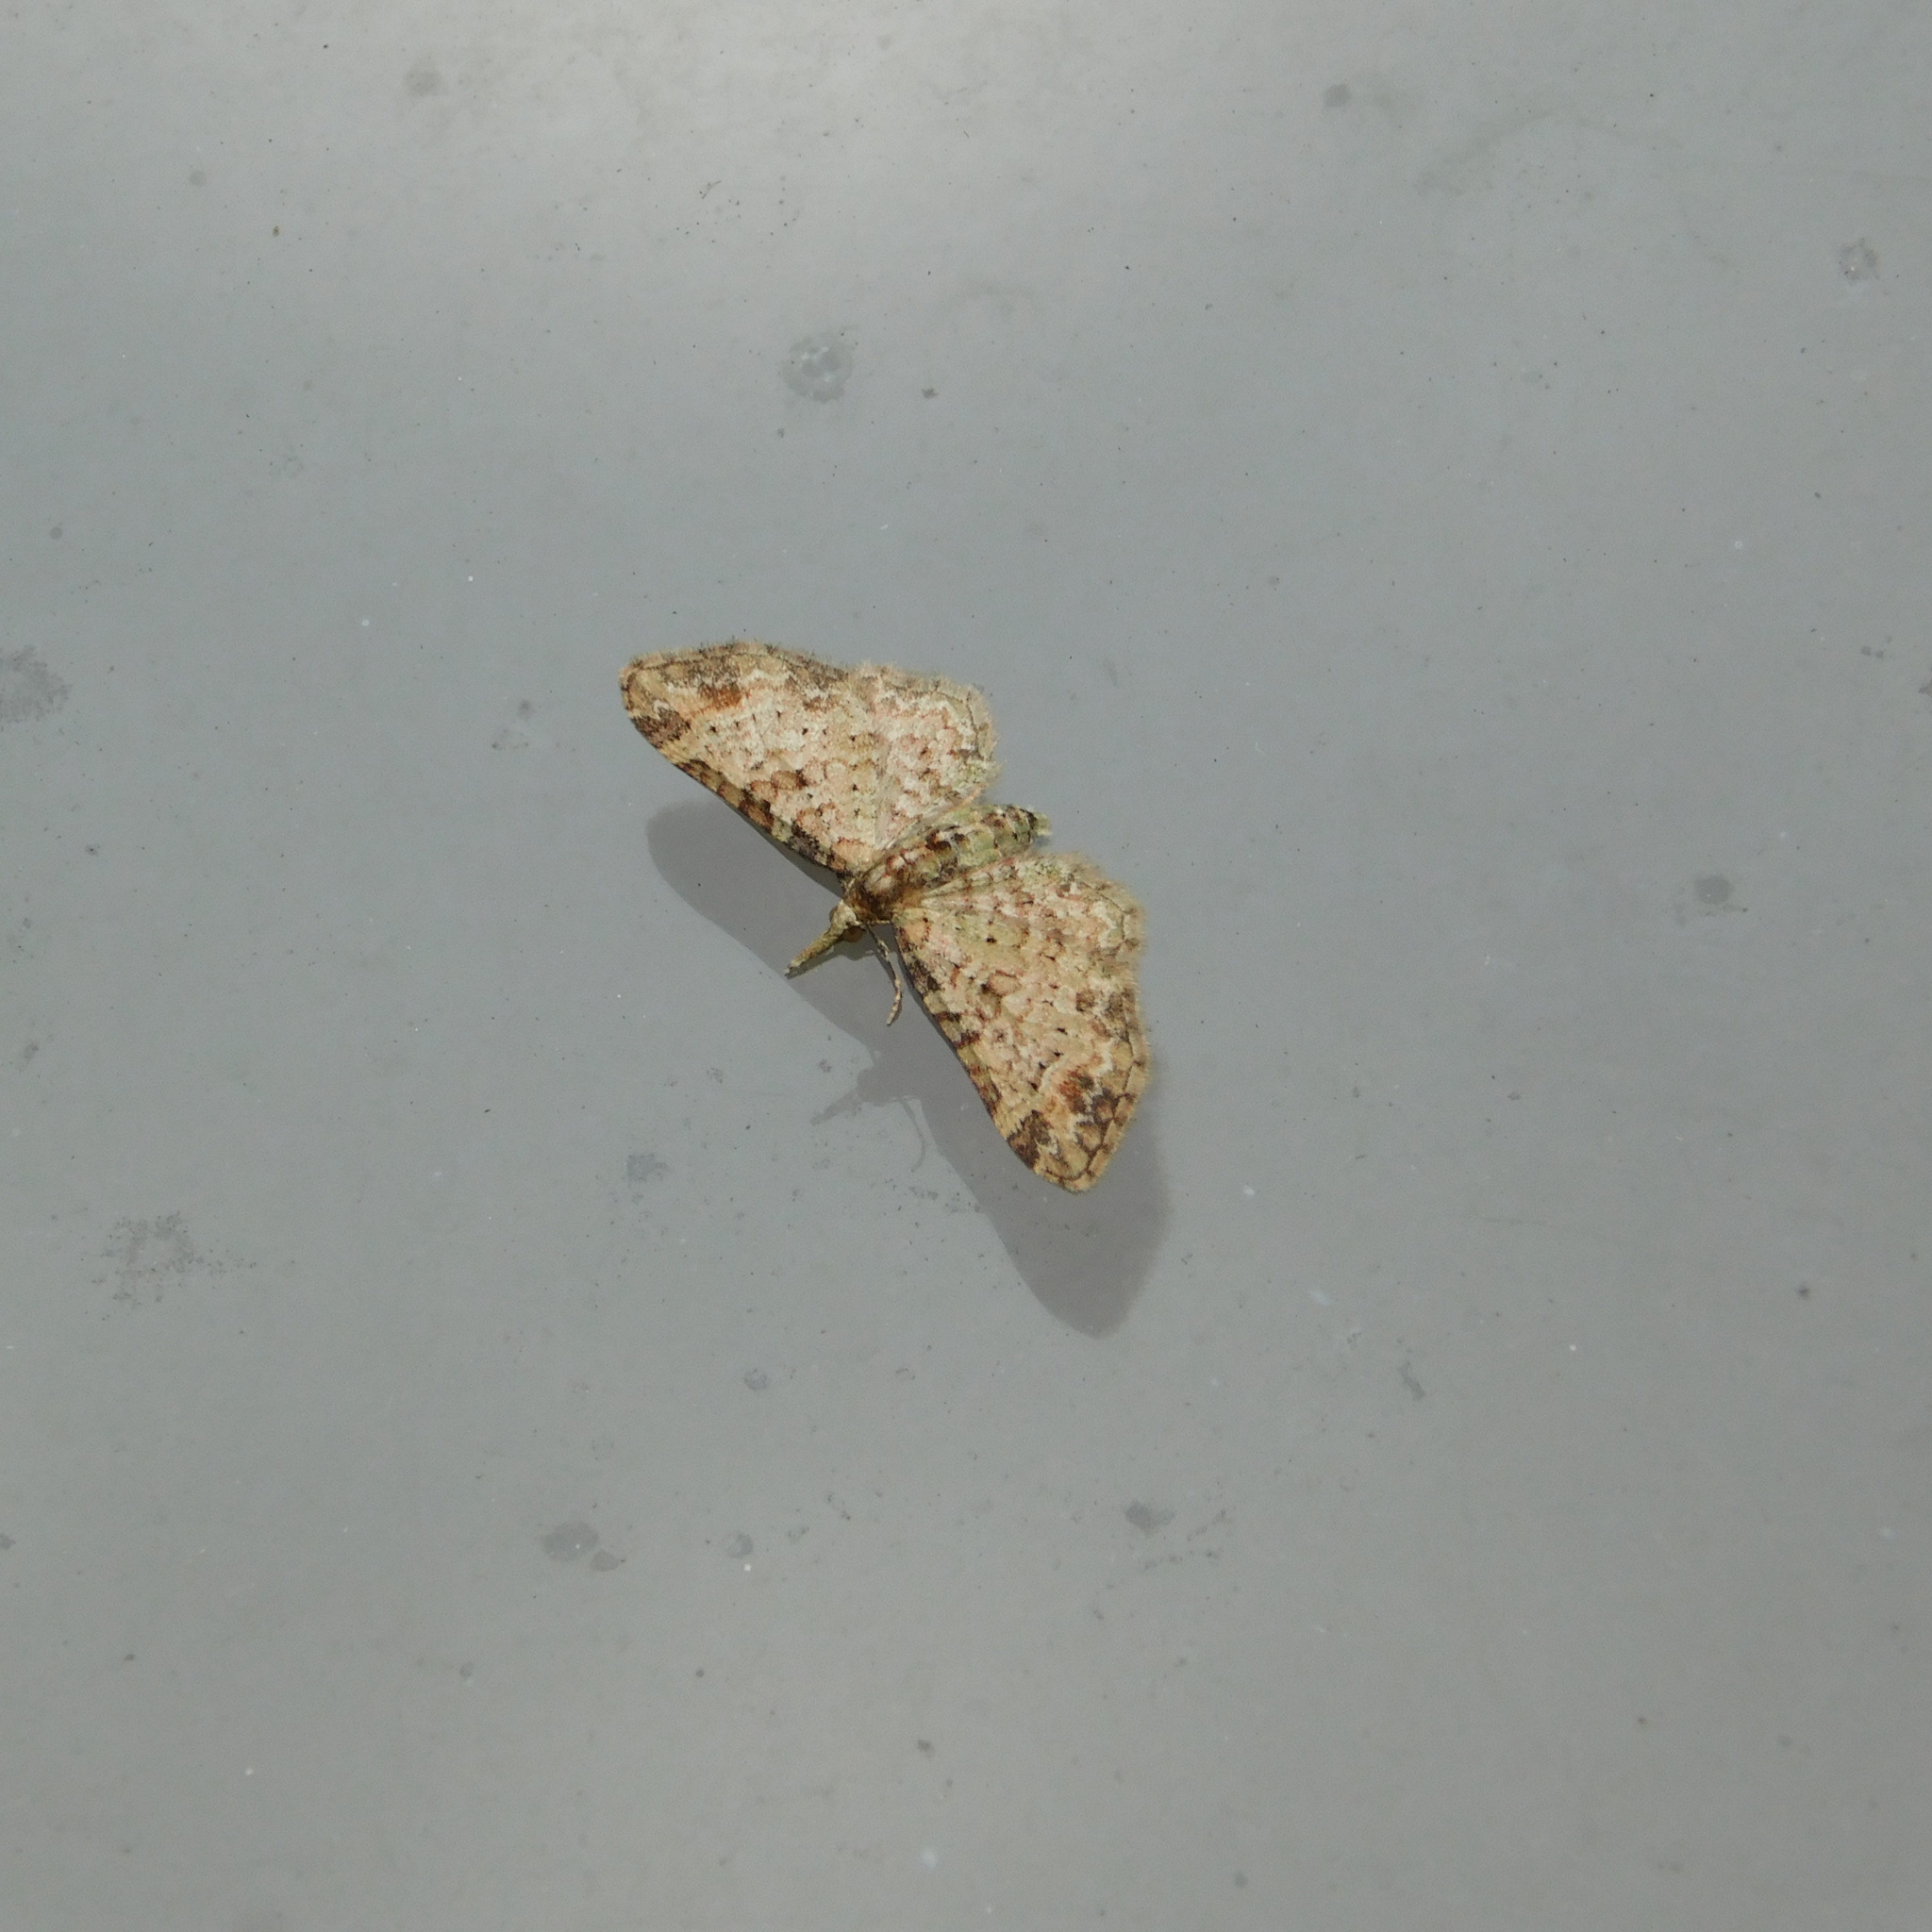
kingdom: Animalia
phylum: Arthropoda
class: Insecta
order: Lepidoptera
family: Geometridae
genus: Pasiphila
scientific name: Pasiphila plinthina
